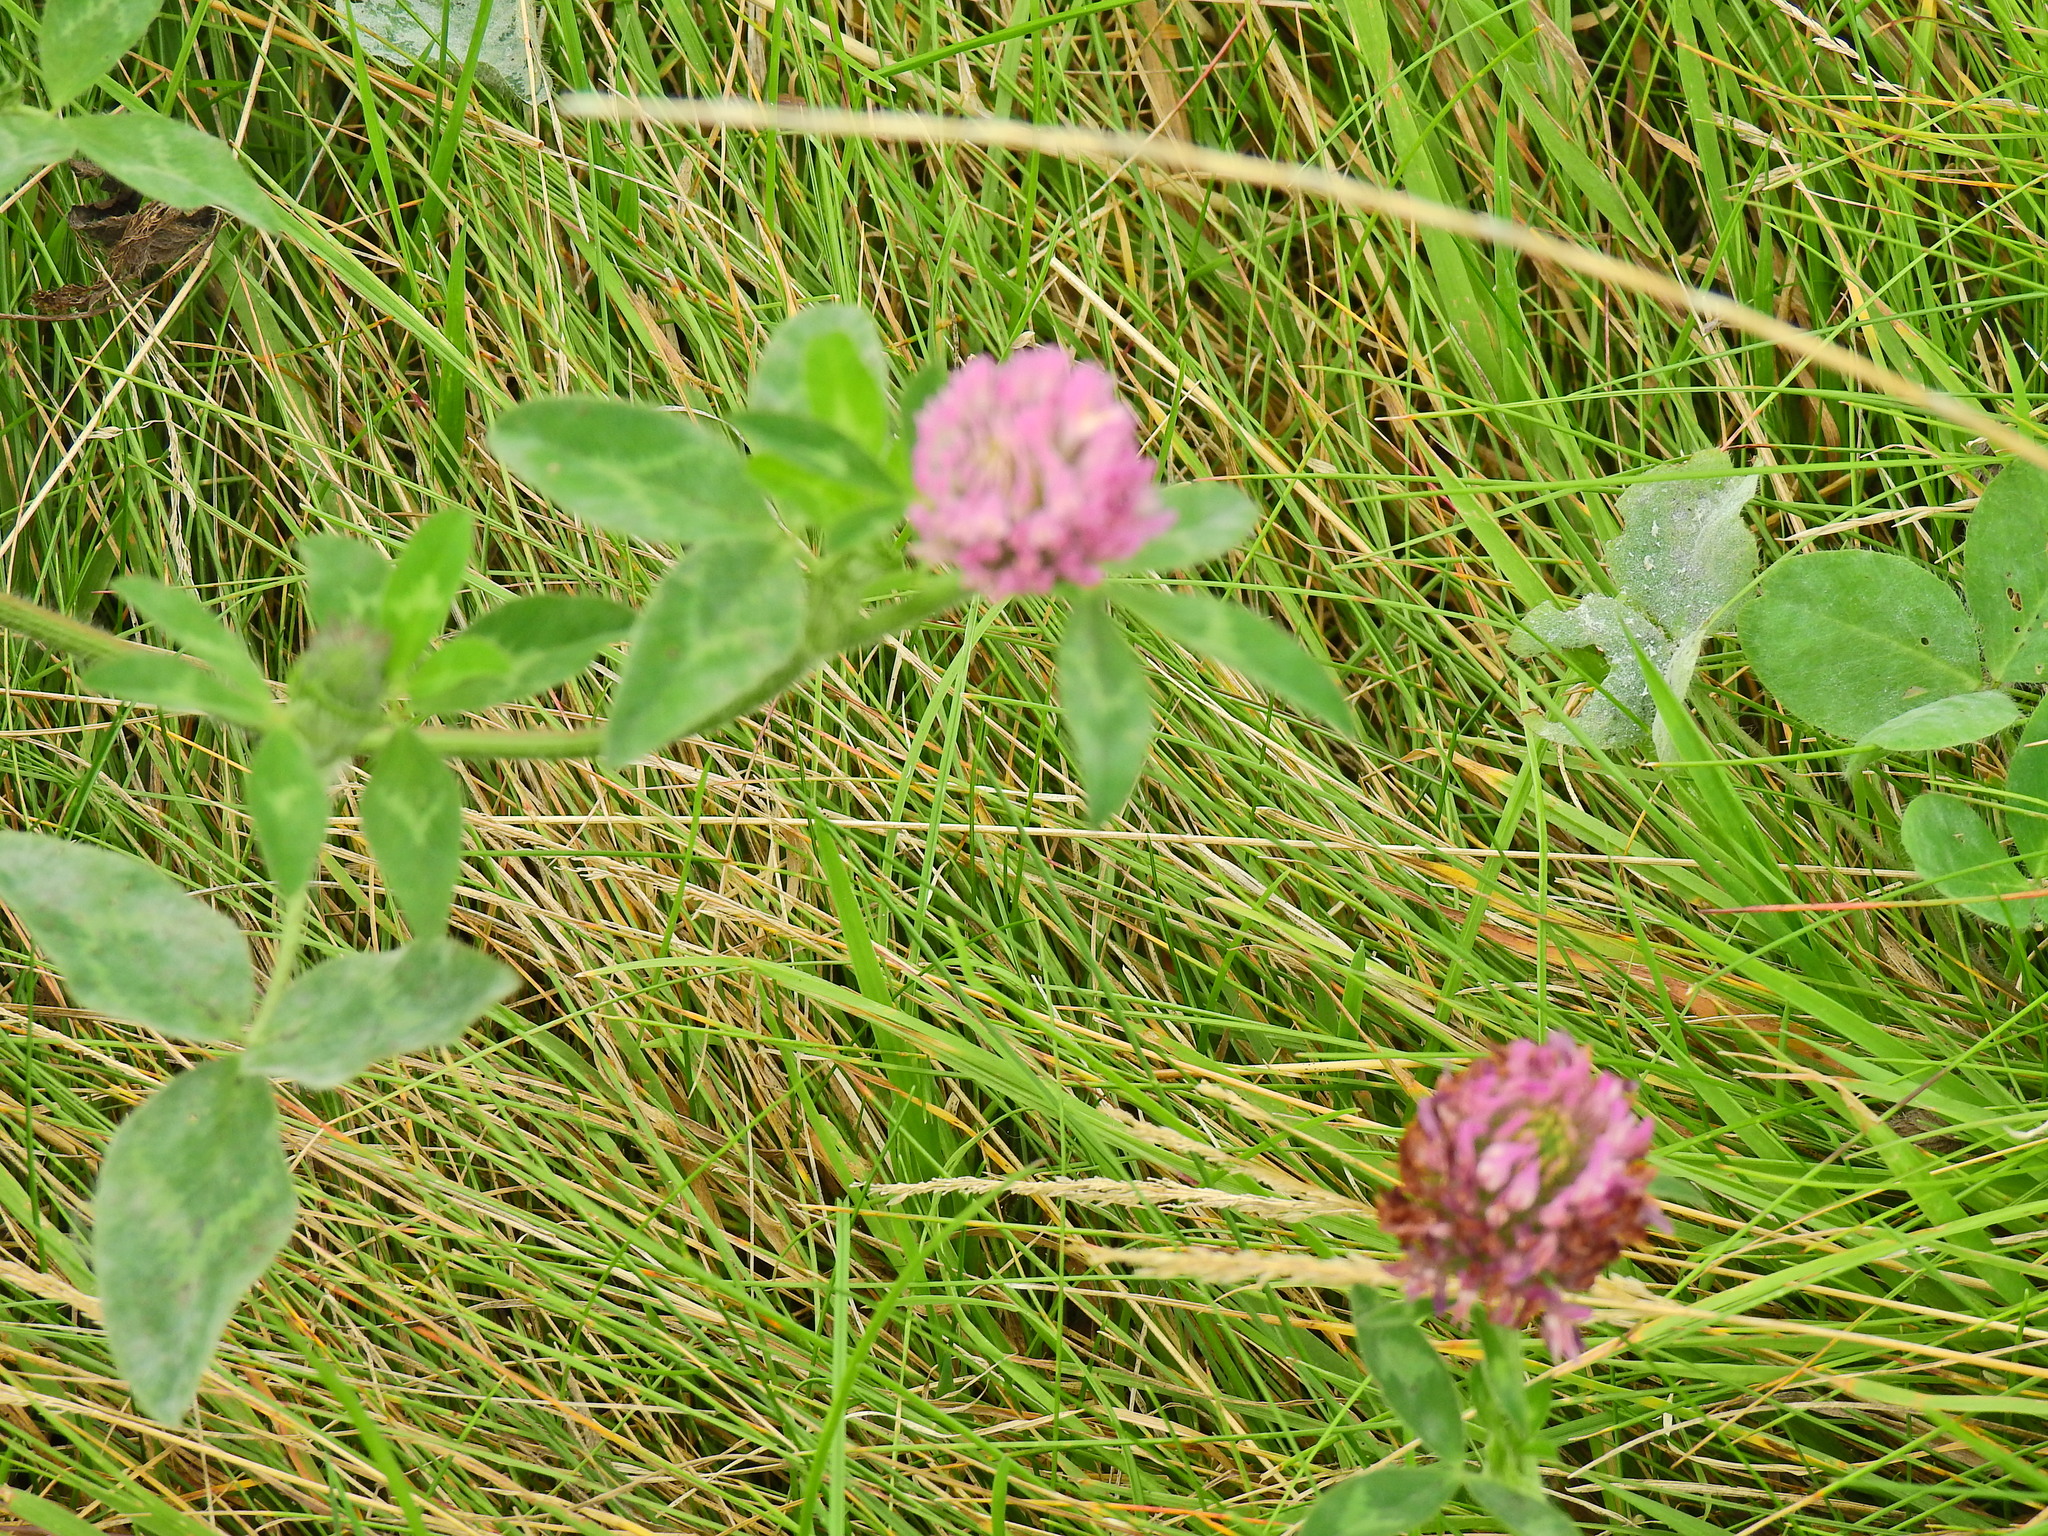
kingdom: Plantae
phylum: Tracheophyta
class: Magnoliopsida
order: Fabales
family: Fabaceae
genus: Trifolium
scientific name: Trifolium pratense
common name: Red clover
